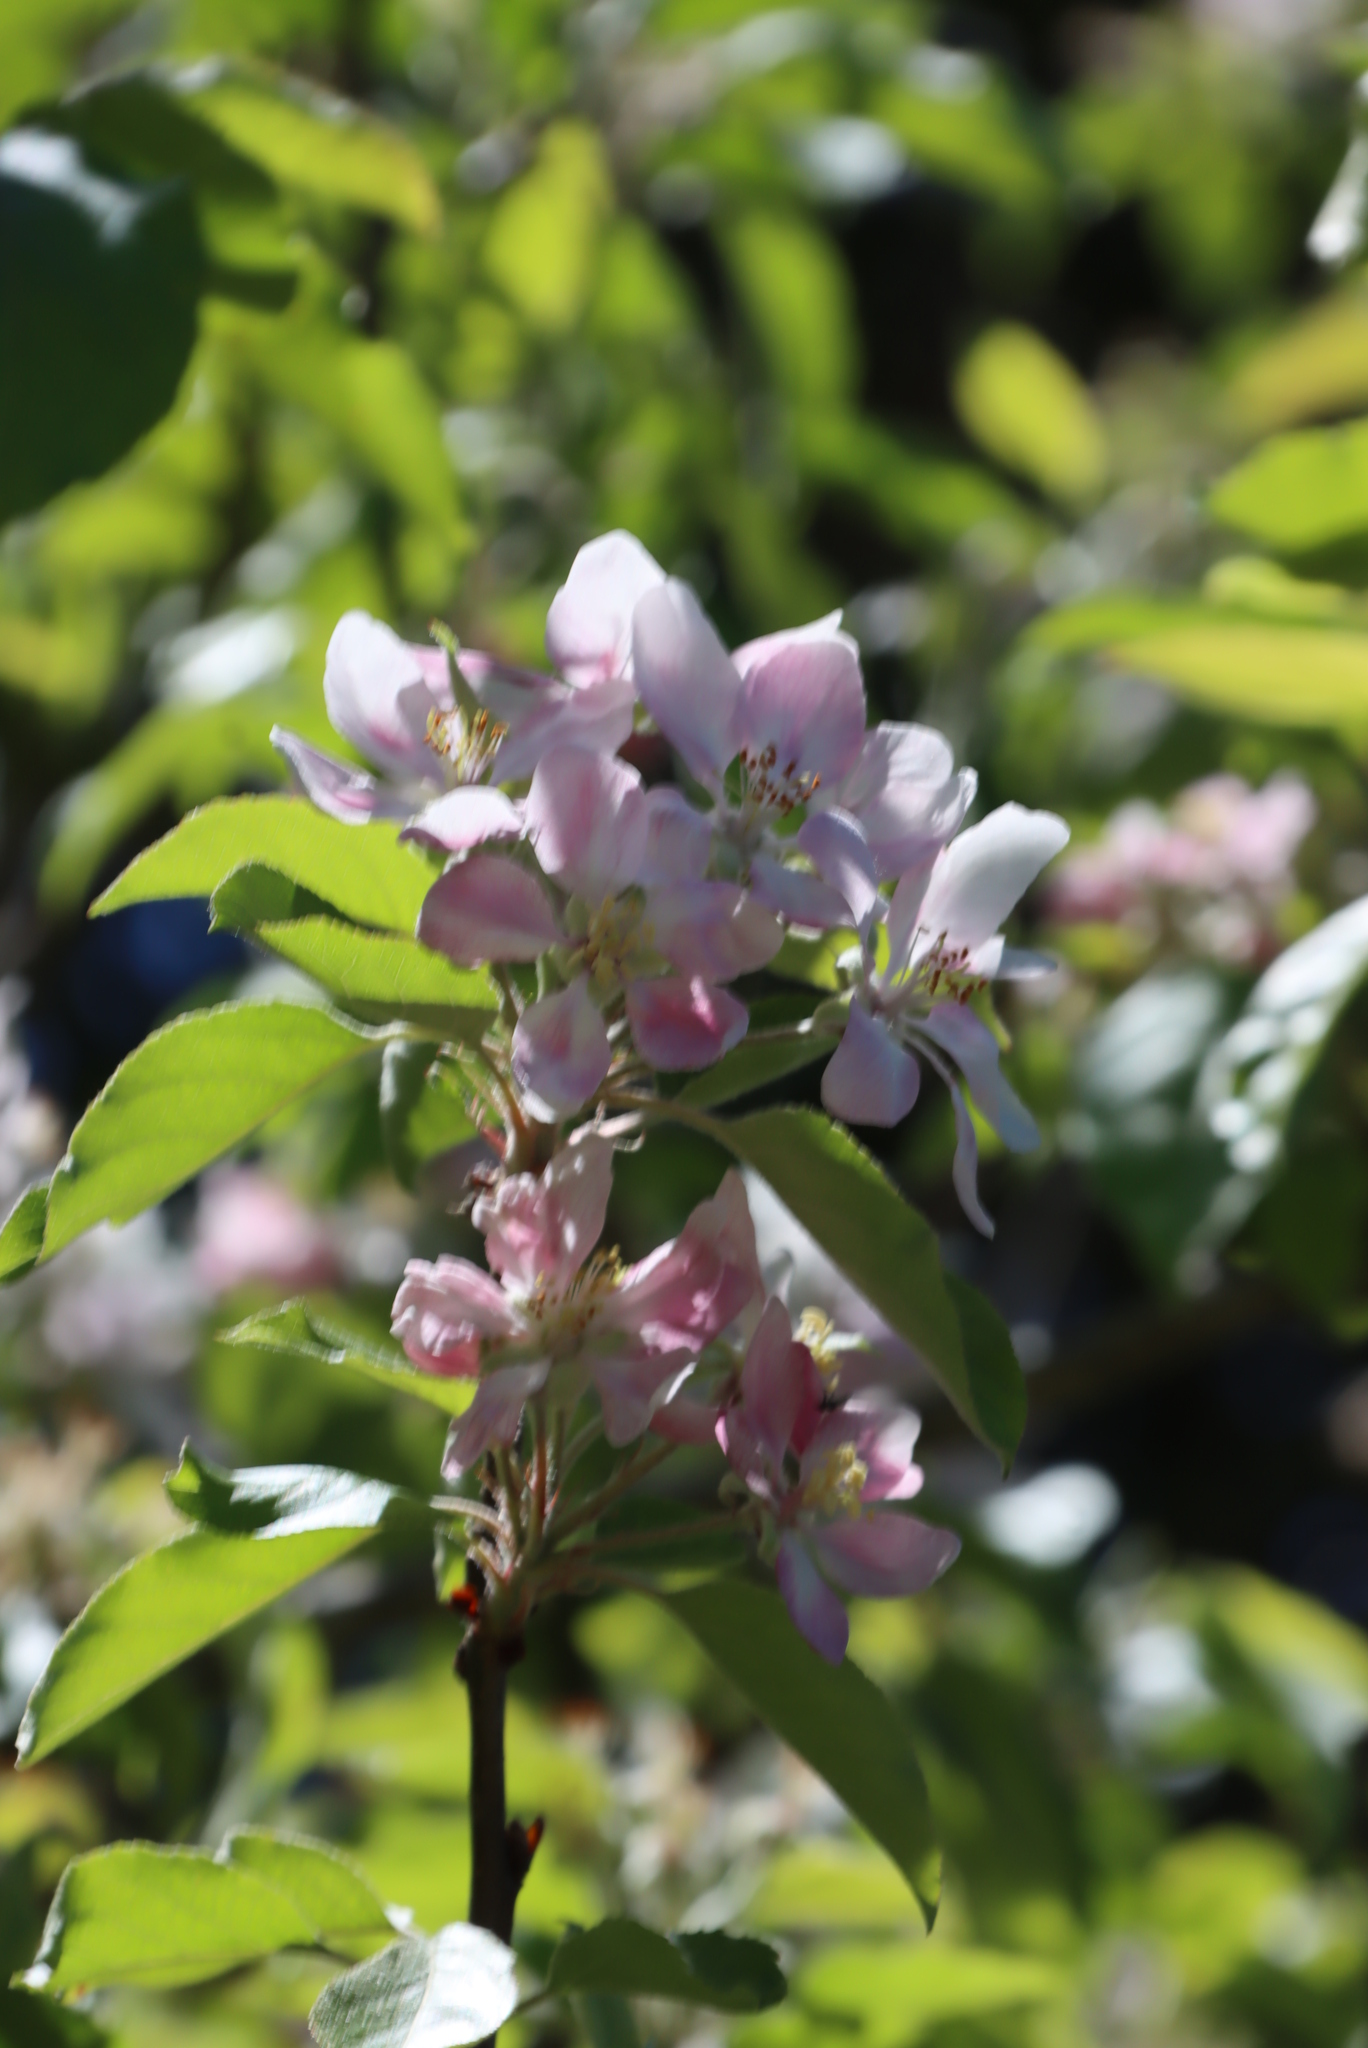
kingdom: Plantae
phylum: Tracheophyta
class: Magnoliopsida
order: Rosales
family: Rosaceae
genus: Cydonia
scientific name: Cydonia oblonga
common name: Quince
